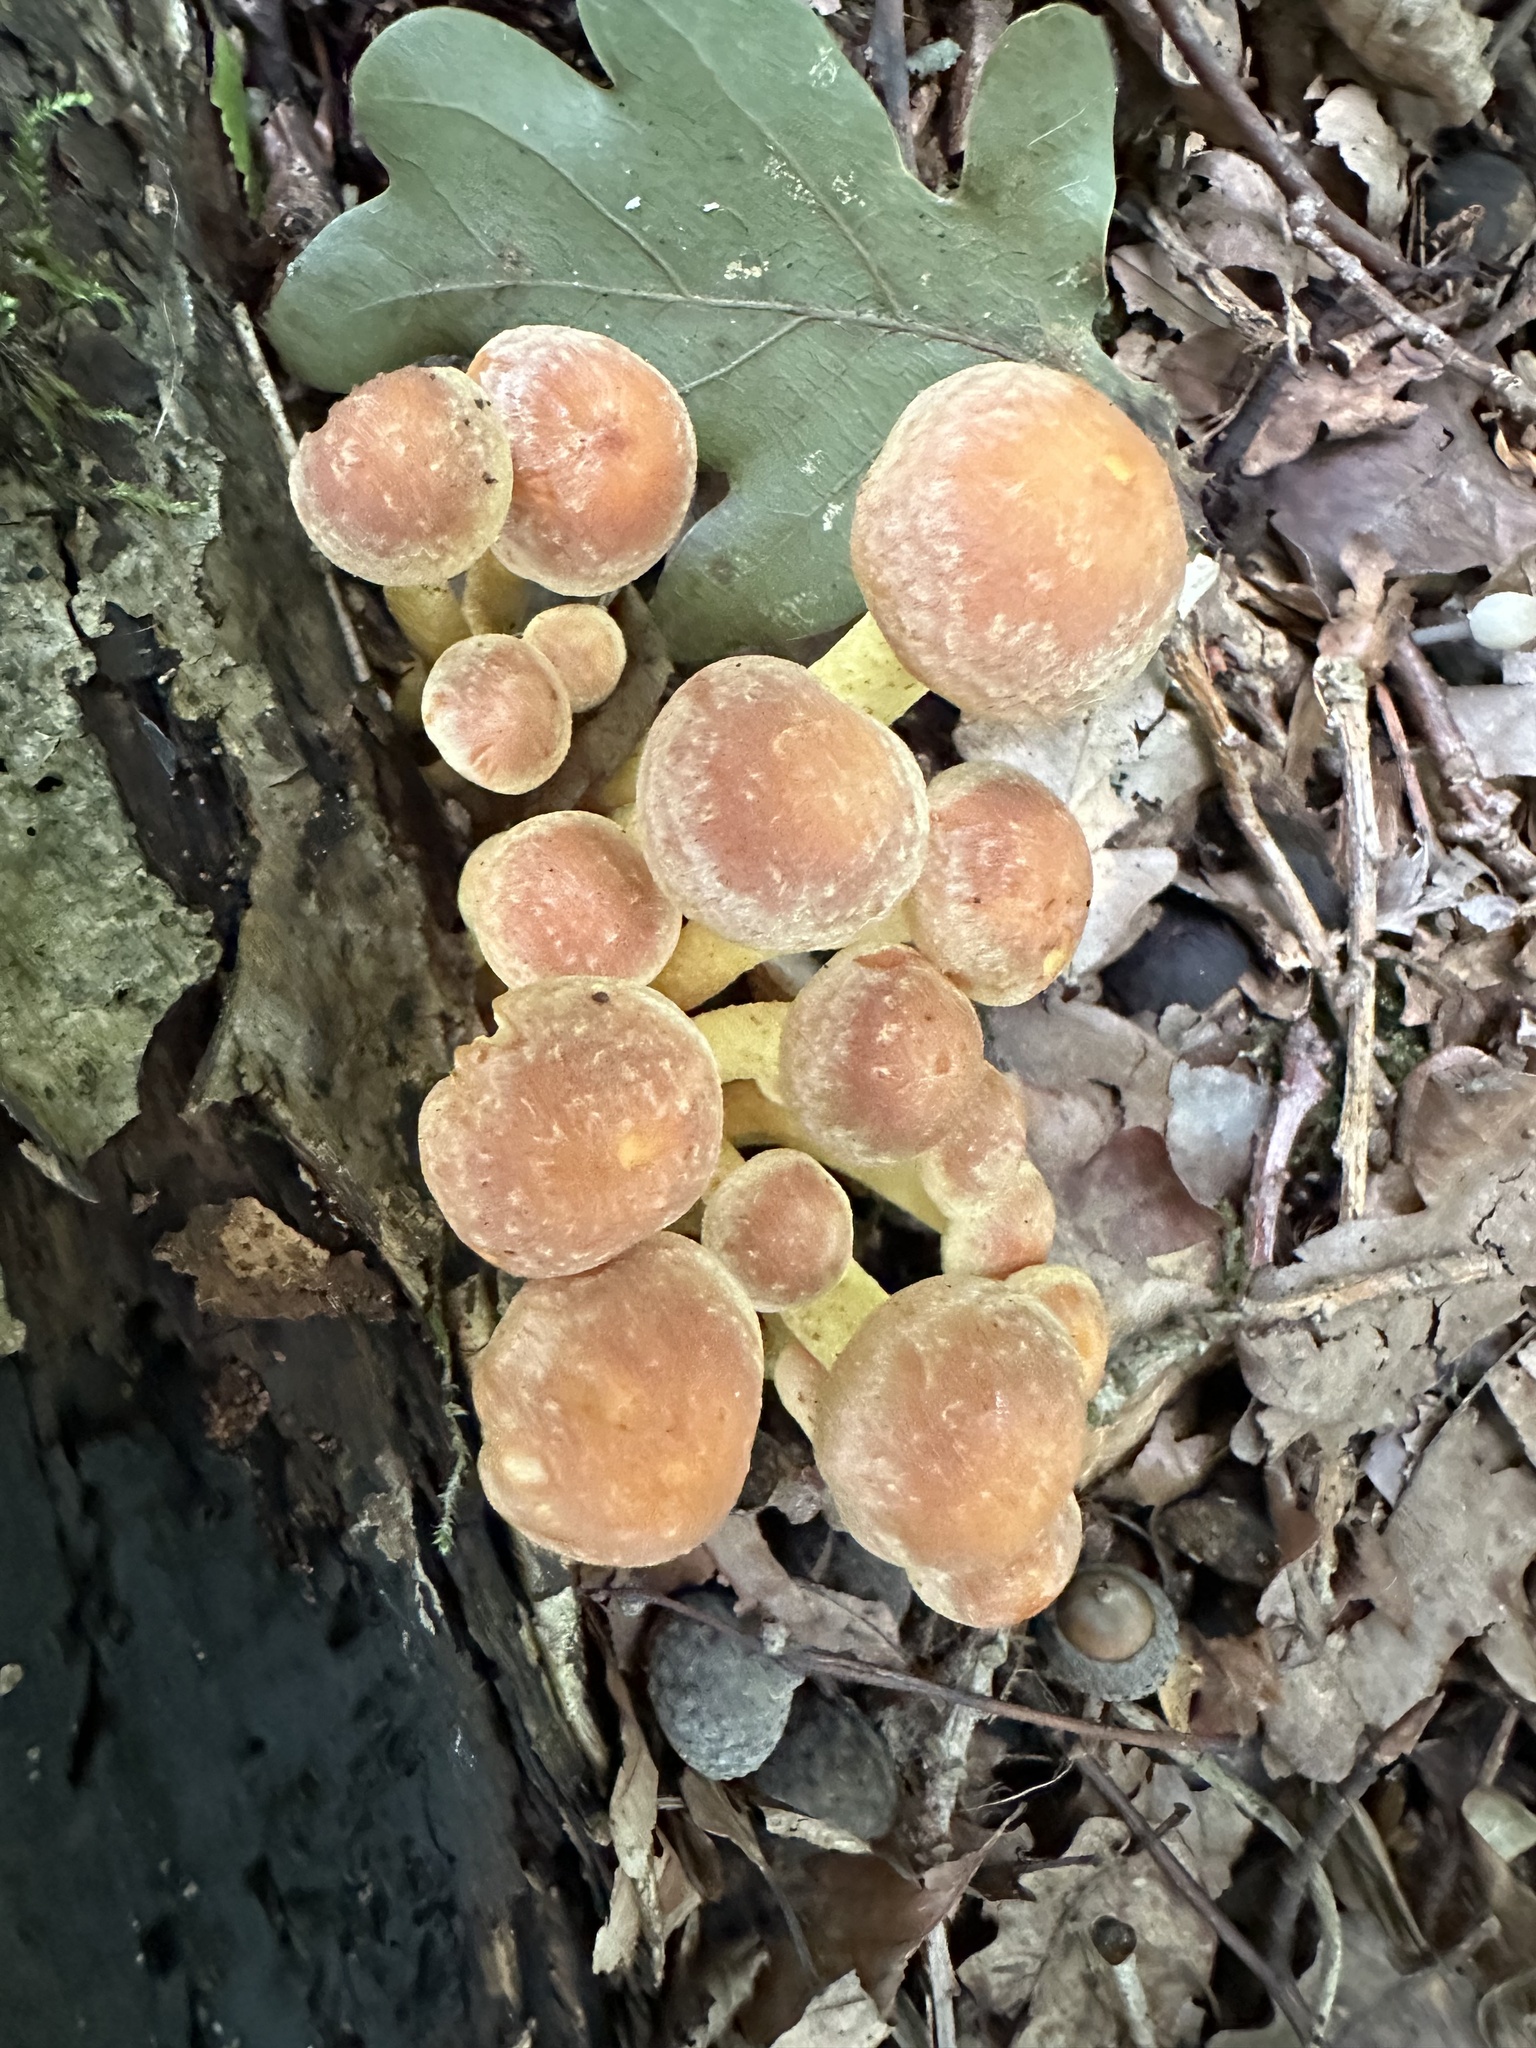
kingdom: Fungi
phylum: Basidiomycota
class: Agaricomycetes
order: Agaricales
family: Strophariaceae
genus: Hypholoma
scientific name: Hypholoma fasciculare
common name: Sulphur tuft
